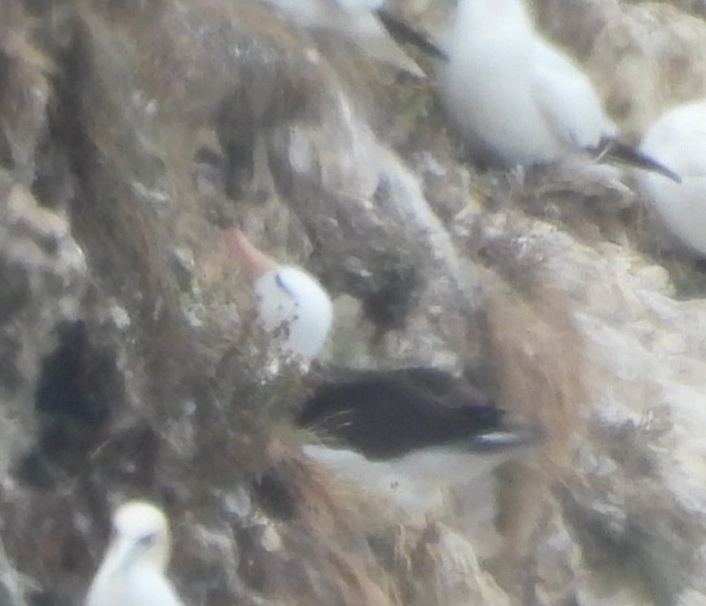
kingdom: Animalia
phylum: Chordata
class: Aves
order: Procellariiformes
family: Diomedeidae
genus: Thalassarche
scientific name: Thalassarche melanophris
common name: Black-browed albatross
